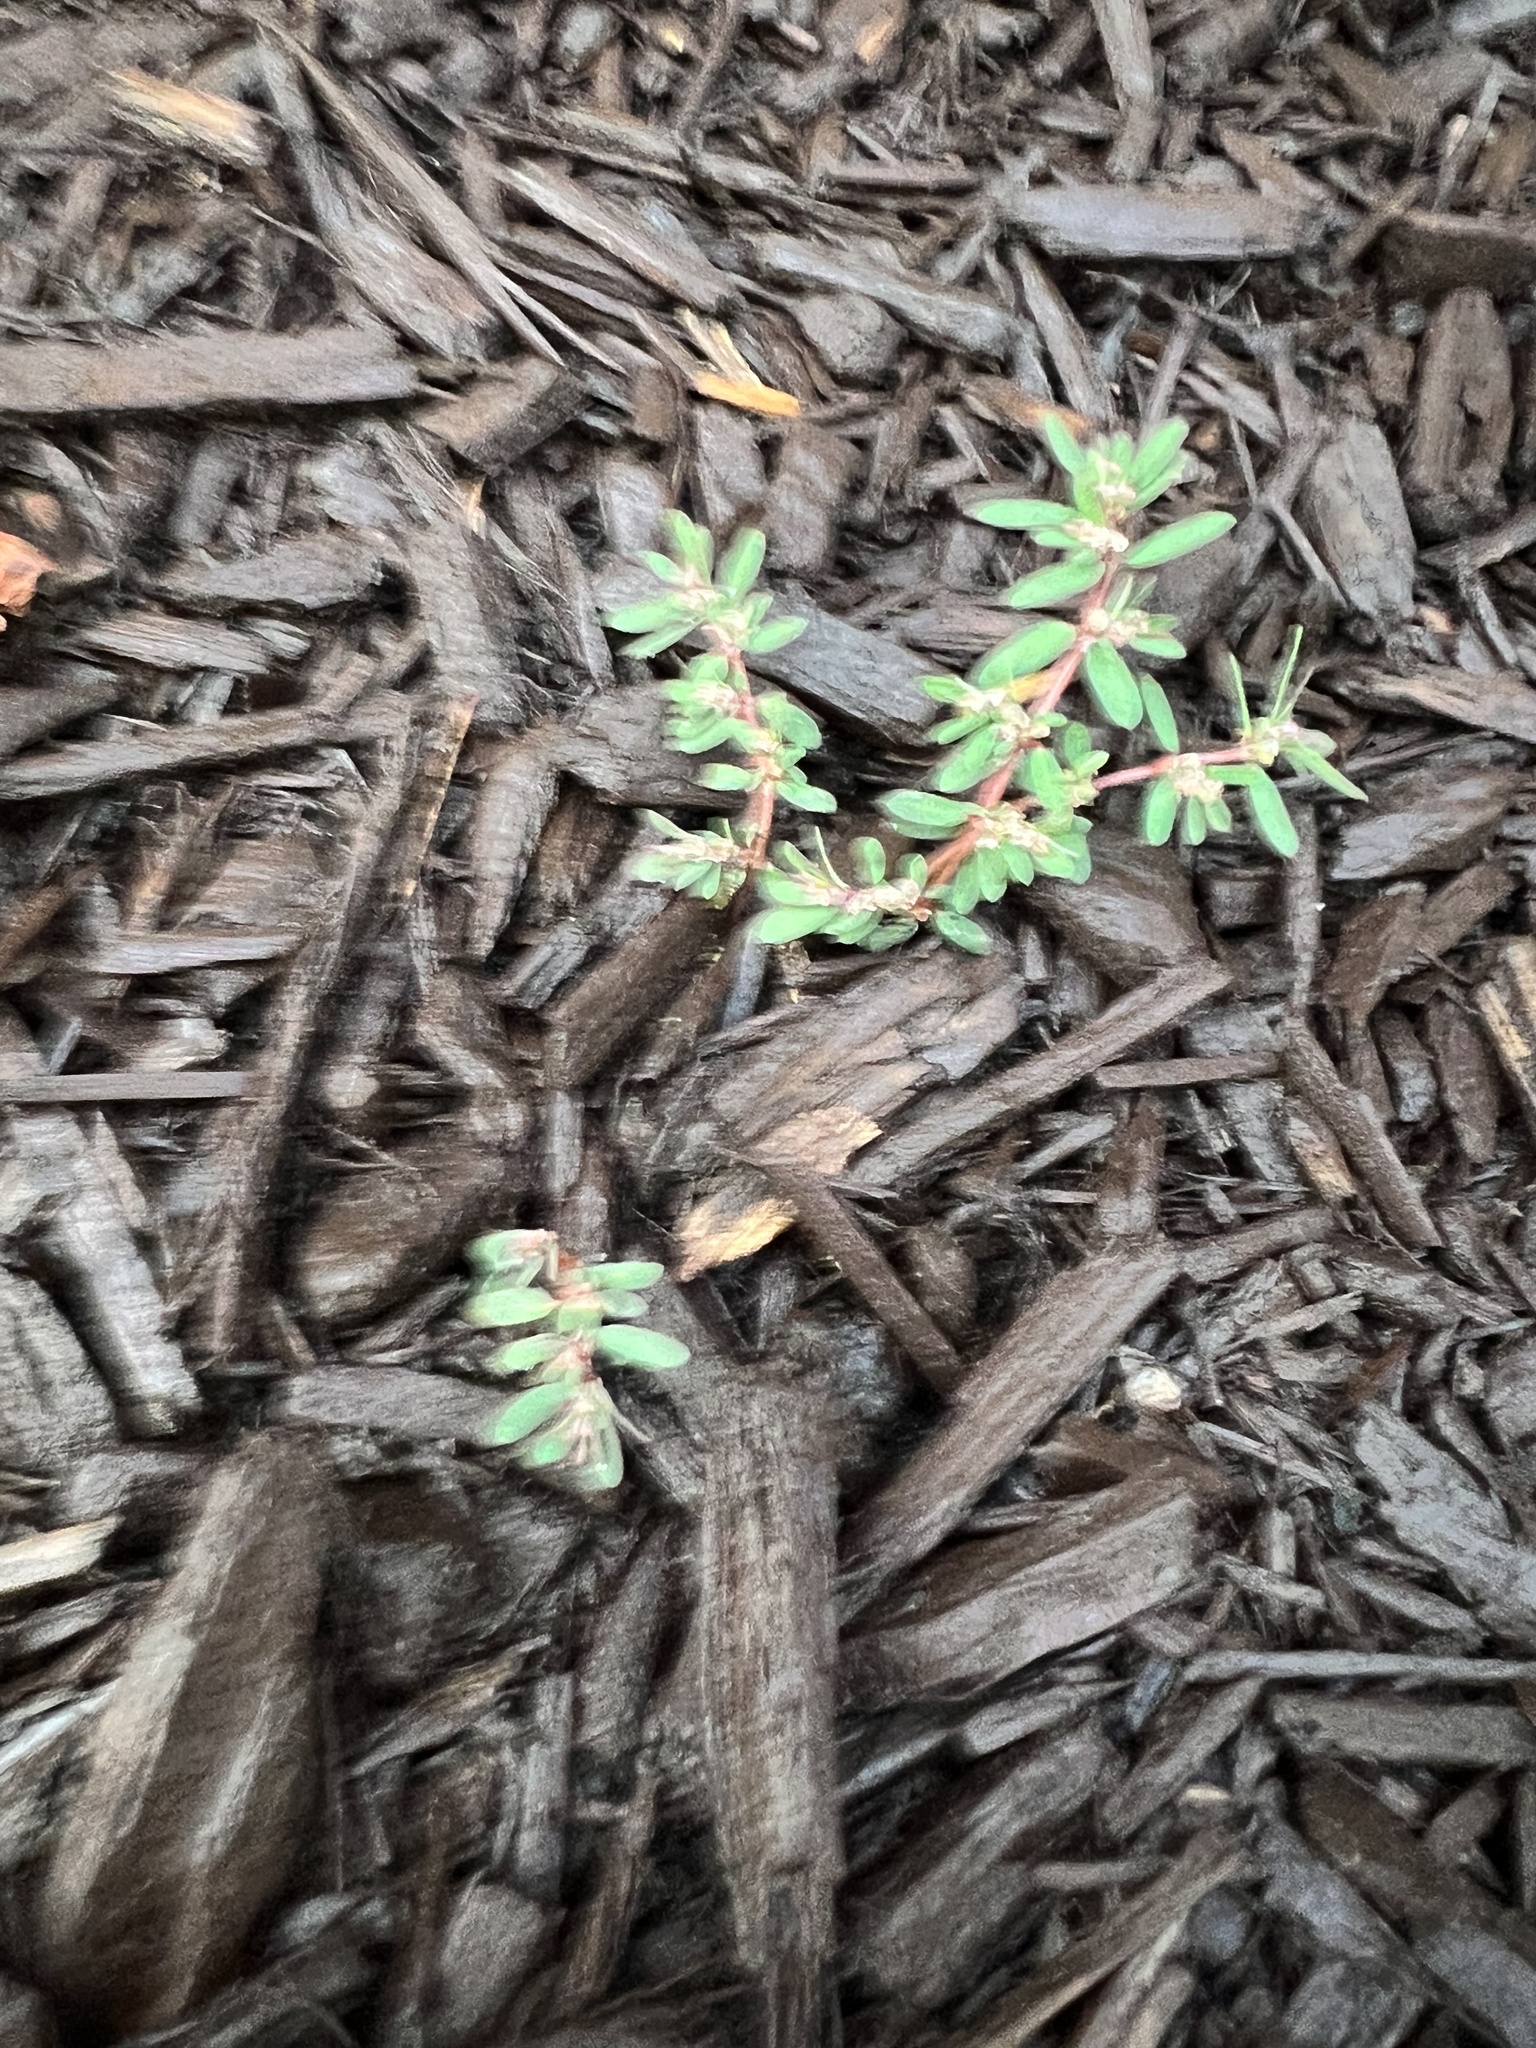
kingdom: Plantae
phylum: Tracheophyta
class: Magnoliopsida
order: Malpighiales
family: Euphorbiaceae
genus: Euphorbia
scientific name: Euphorbia maculata
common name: Spotted spurge
